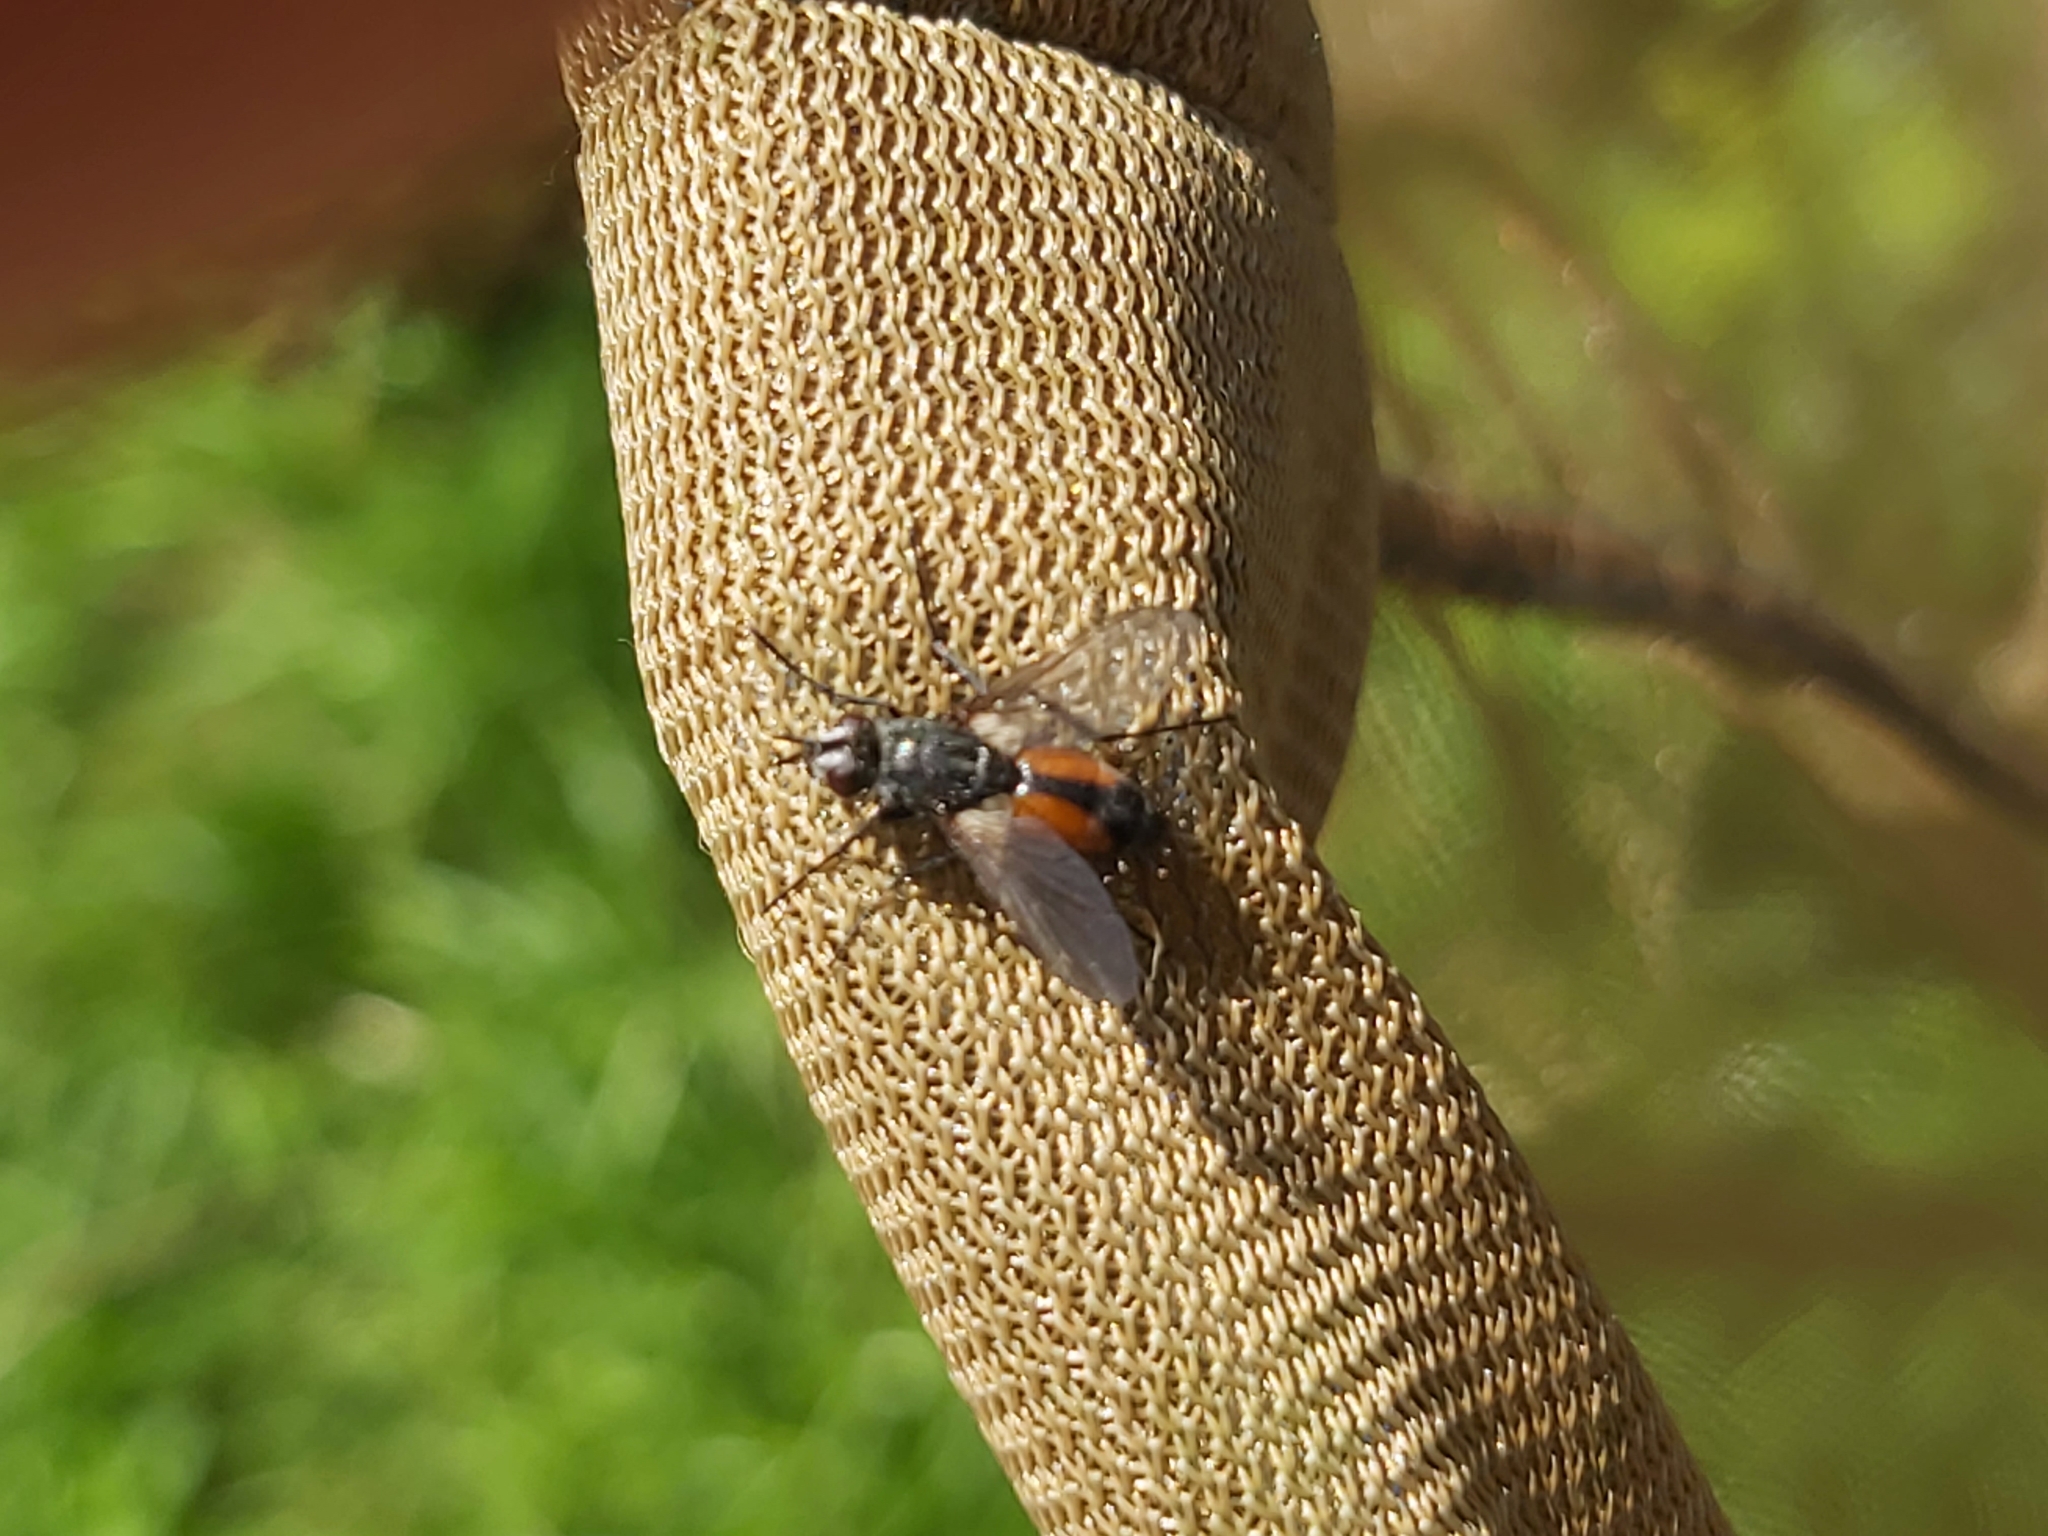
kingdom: Animalia
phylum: Arthropoda
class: Insecta
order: Diptera
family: Tachinidae
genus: Eriothrix
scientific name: Eriothrix rufomaculatus
